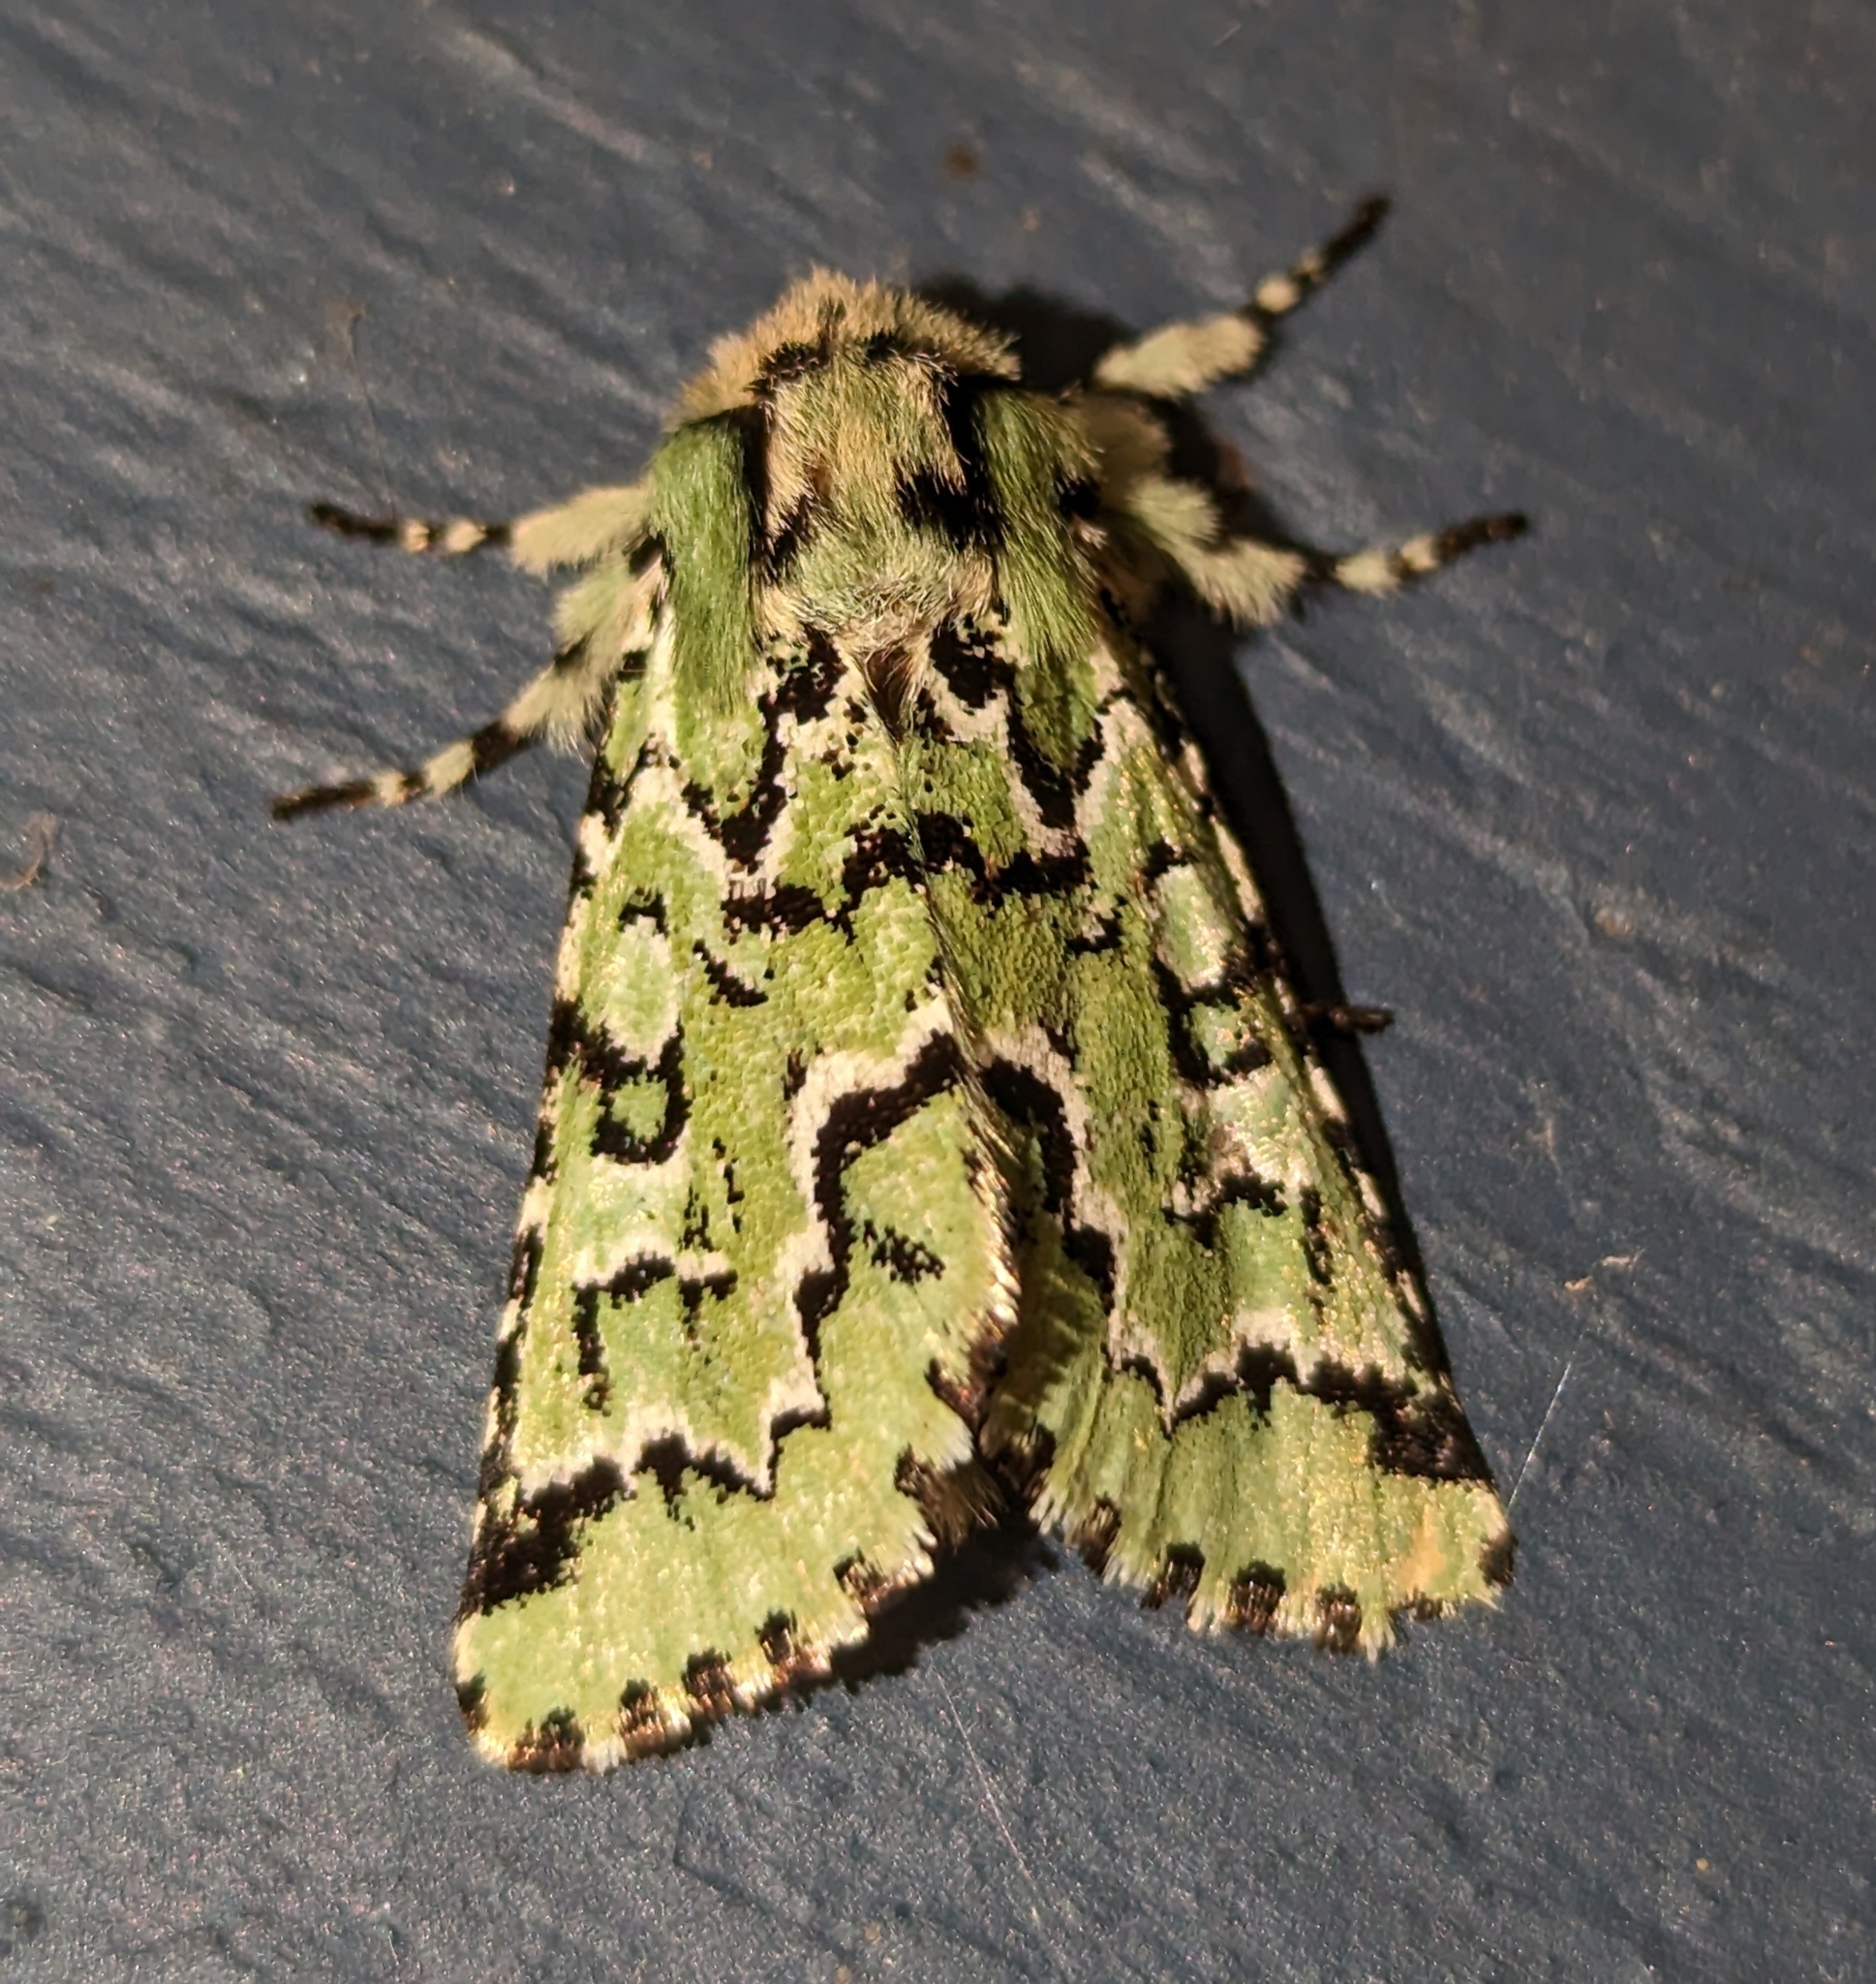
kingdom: Animalia
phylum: Arthropoda
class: Insecta
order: Lepidoptera
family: Noctuidae
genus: Feralia
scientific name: Feralia deceptiva
